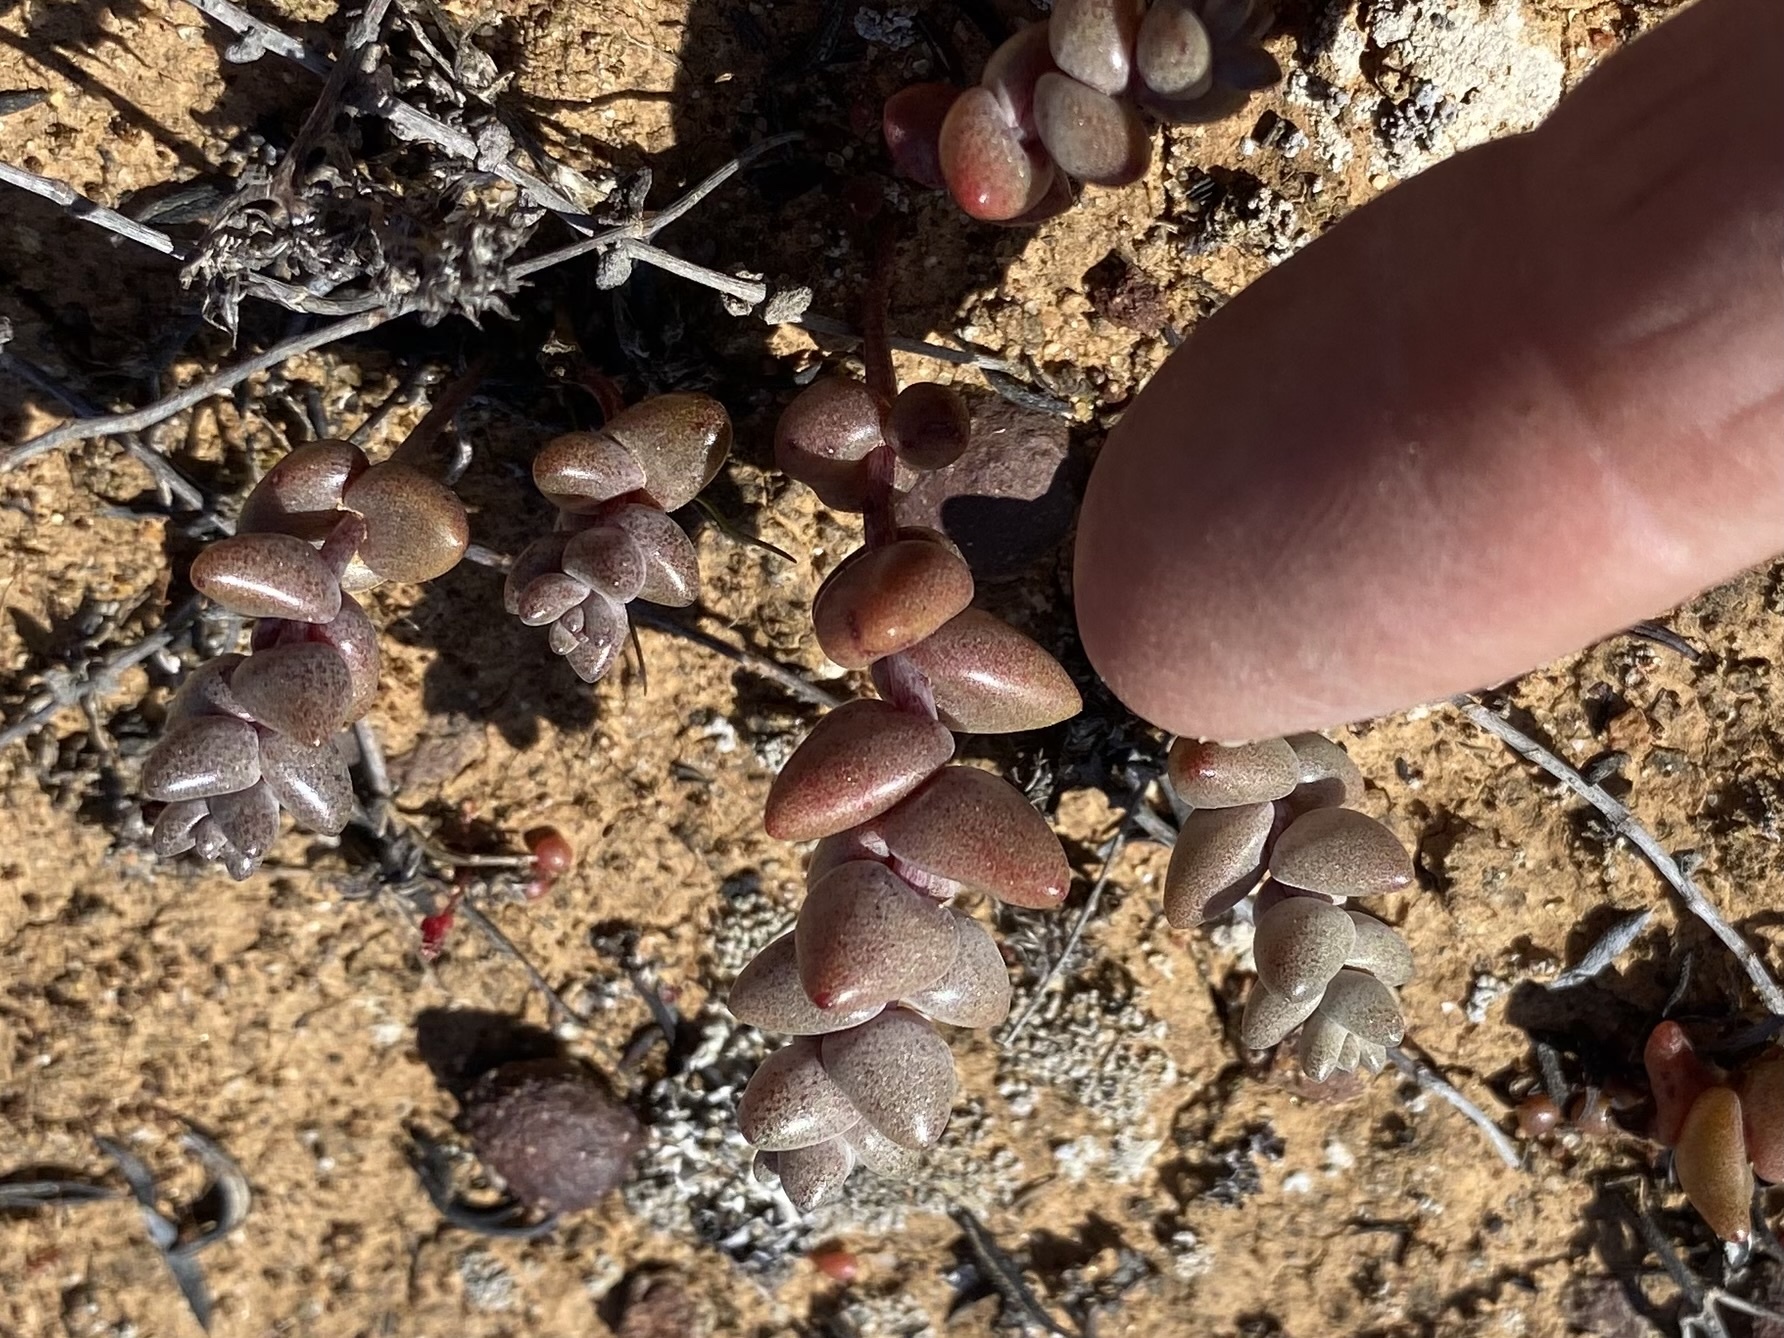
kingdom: Plantae
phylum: Tracheophyta
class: Magnoliopsida
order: Saxifragales
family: Crassulaceae
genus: Dudleya
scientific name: Dudleya blochmaniae
